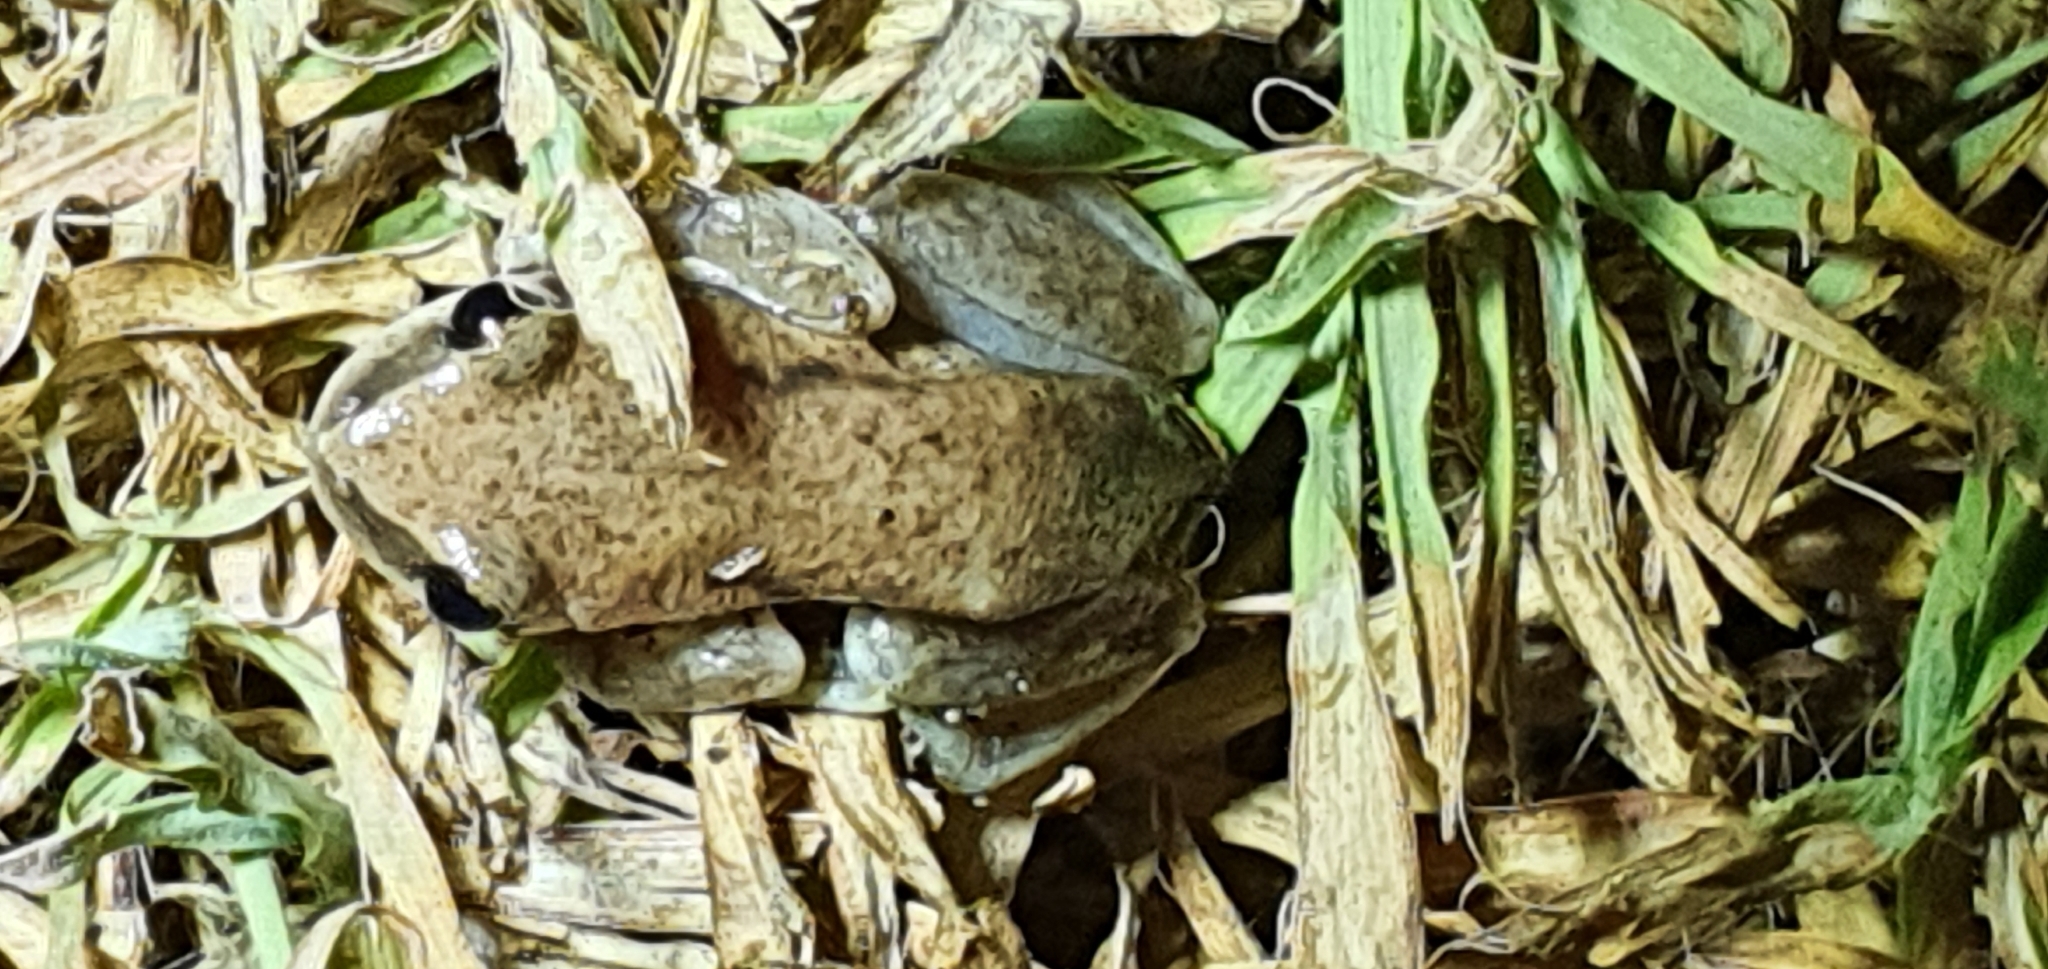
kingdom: Animalia
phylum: Chordata
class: Amphibia
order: Anura
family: Pelodryadidae
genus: Litoria
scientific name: Litoria rubella
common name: Desert tree frog
